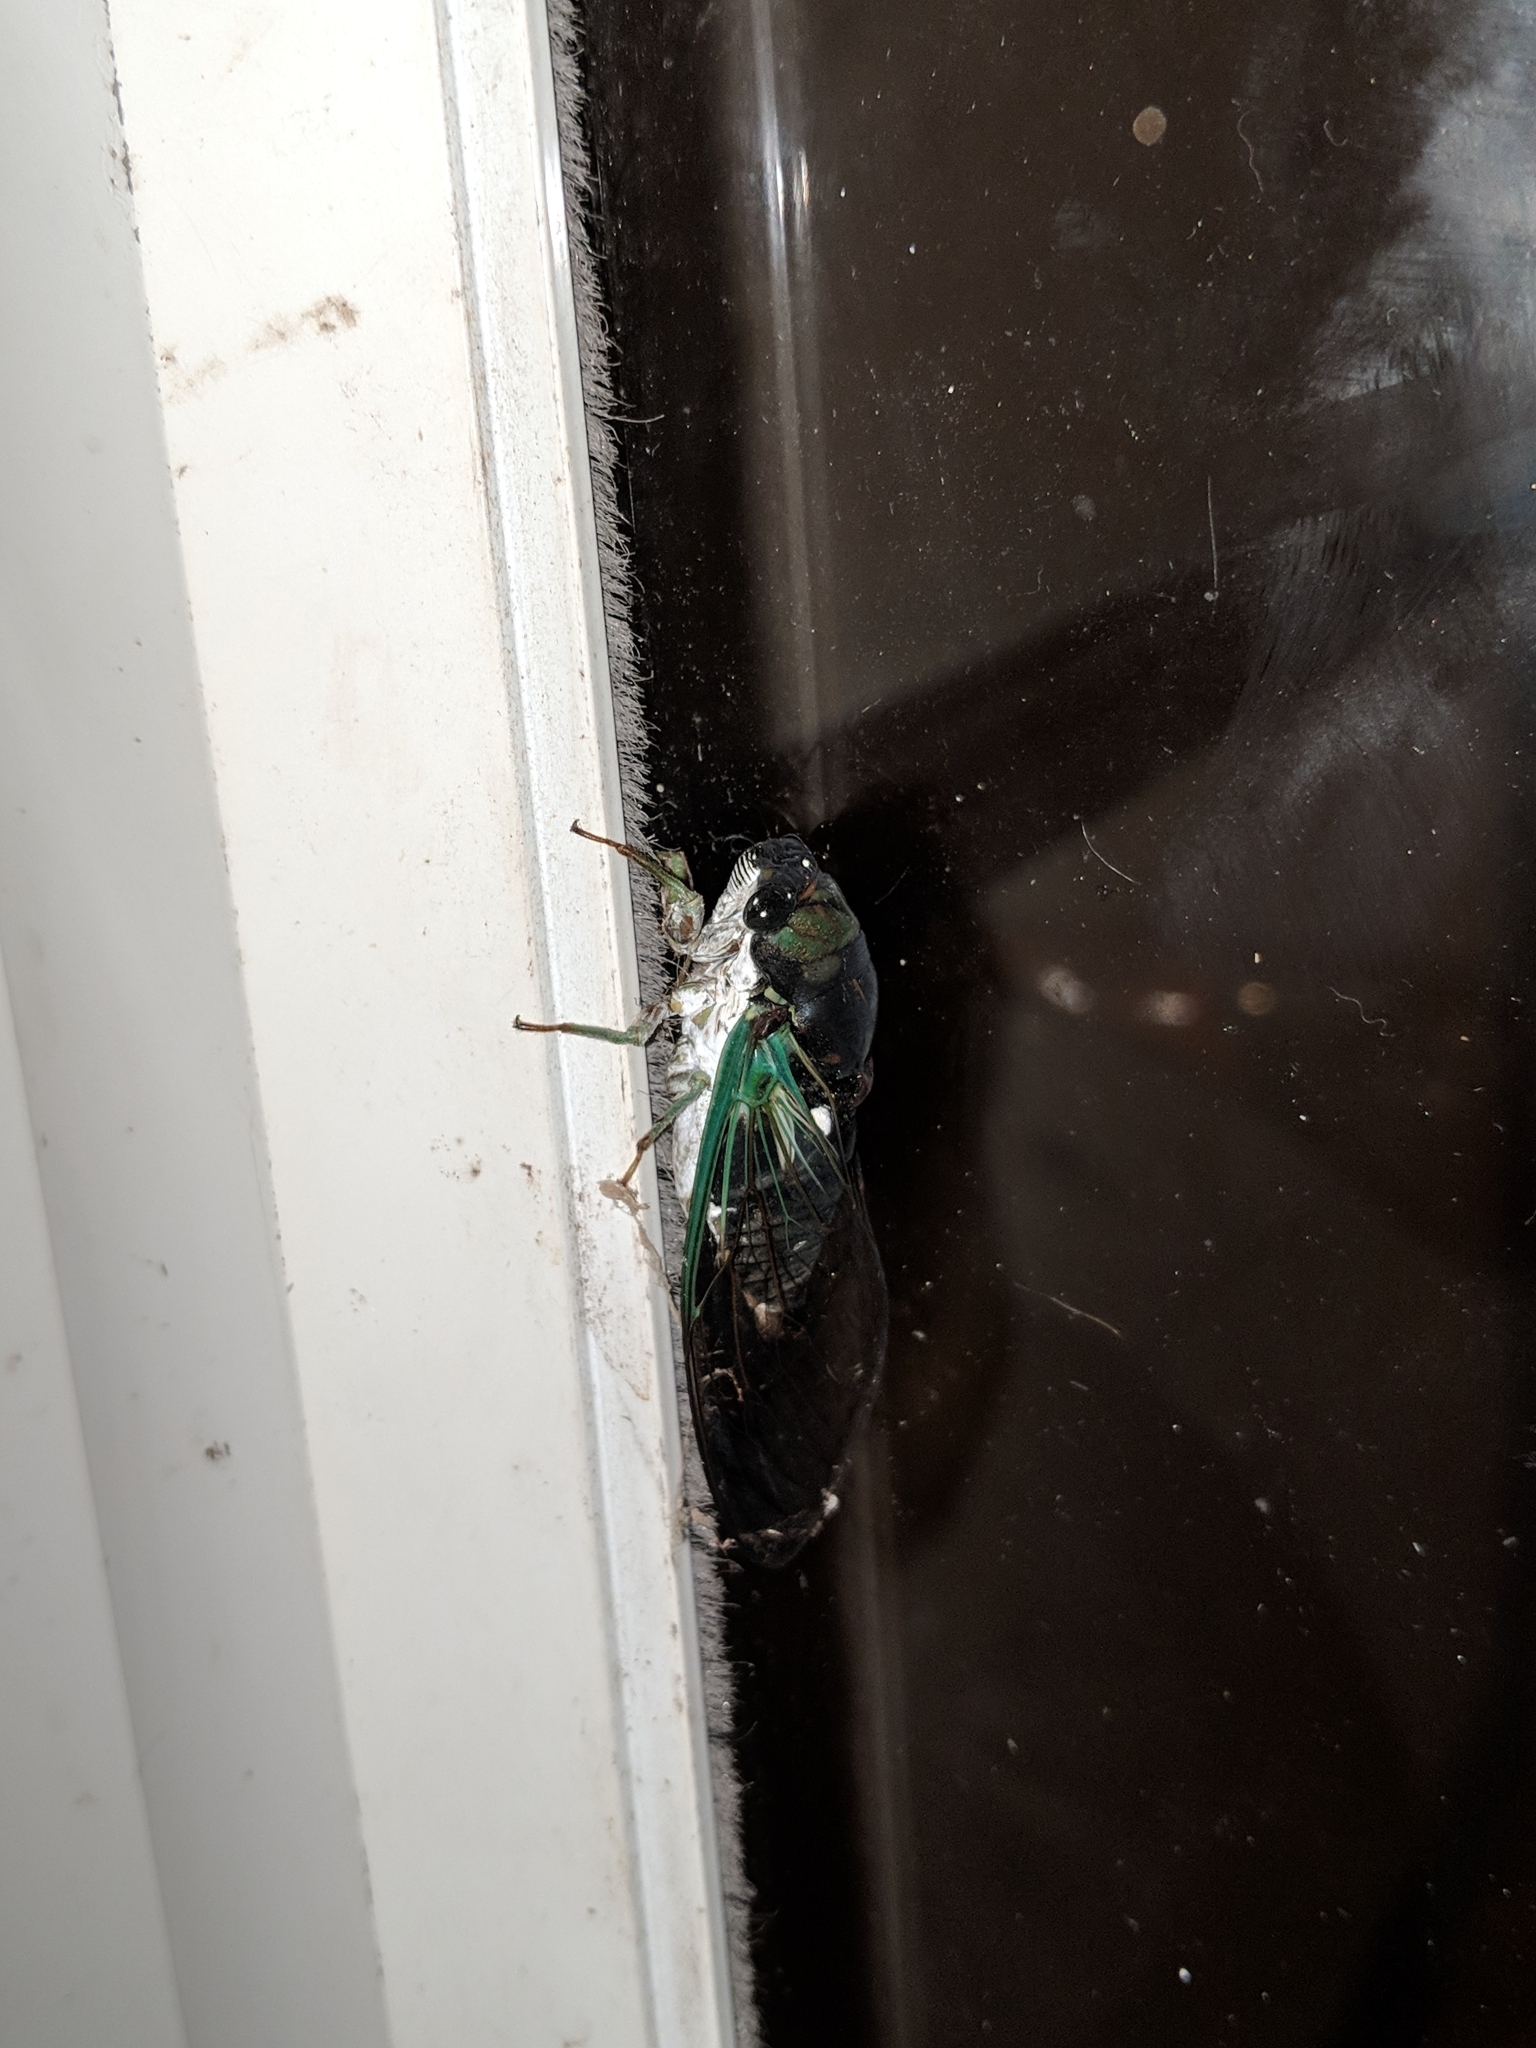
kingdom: Animalia
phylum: Arthropoda
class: Insecta
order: Hemiptera
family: Cicadidae
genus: Neotibicen
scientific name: Neotibicen tibicen
